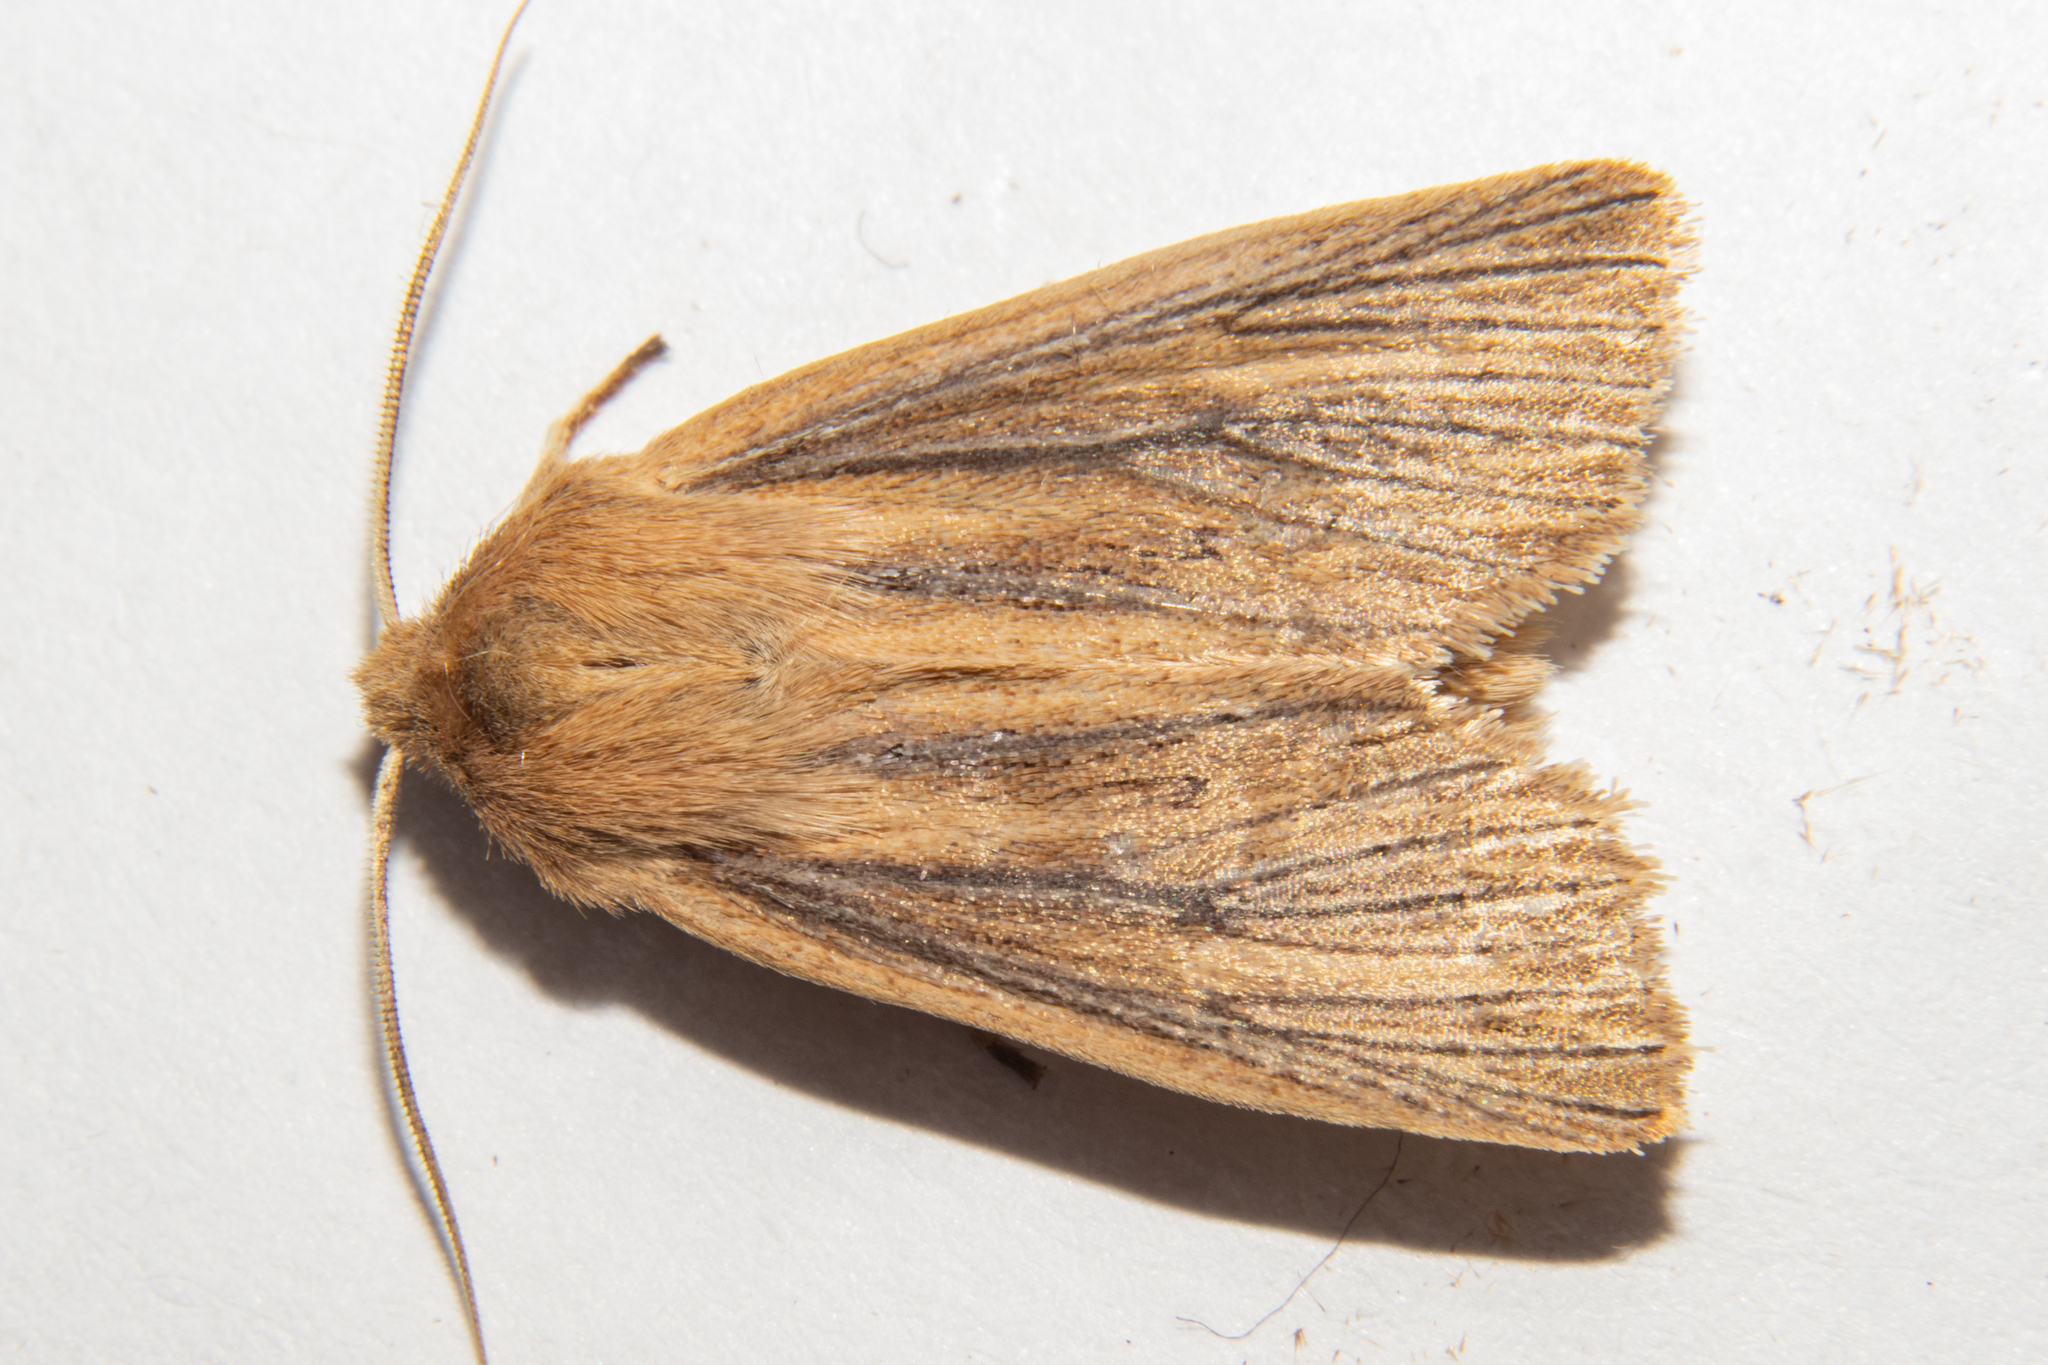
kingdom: Animalia
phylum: Arthropoda
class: Insecta
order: Lepidoptera
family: Noctuidae
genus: Ichneutica
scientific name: Ichneutica arotis
